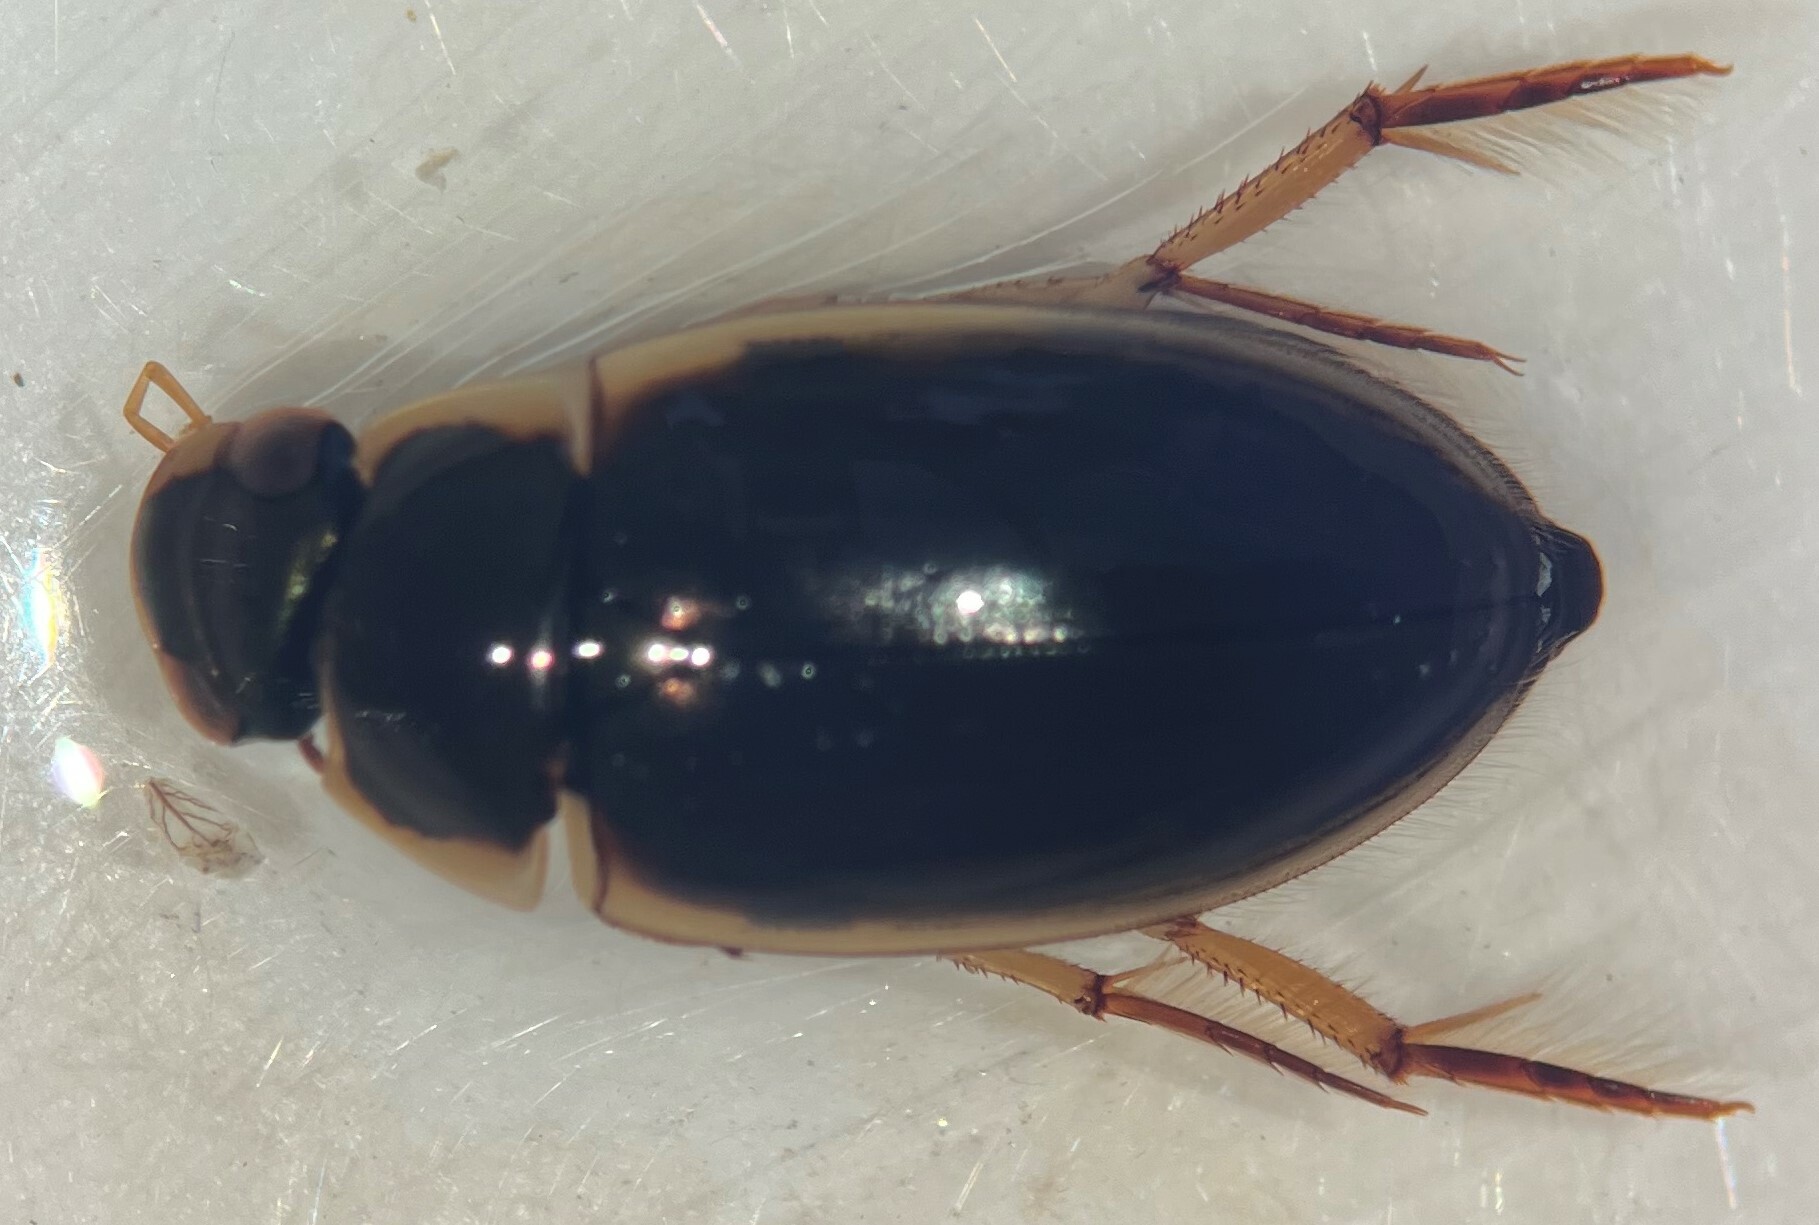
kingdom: Animalia
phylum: Arthropoda
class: Insecta
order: Coleoptera
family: Hydrophilidae
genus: Tropisternus
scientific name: Tropisternus lateralis
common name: Lateral-banded water scavenger beetle
